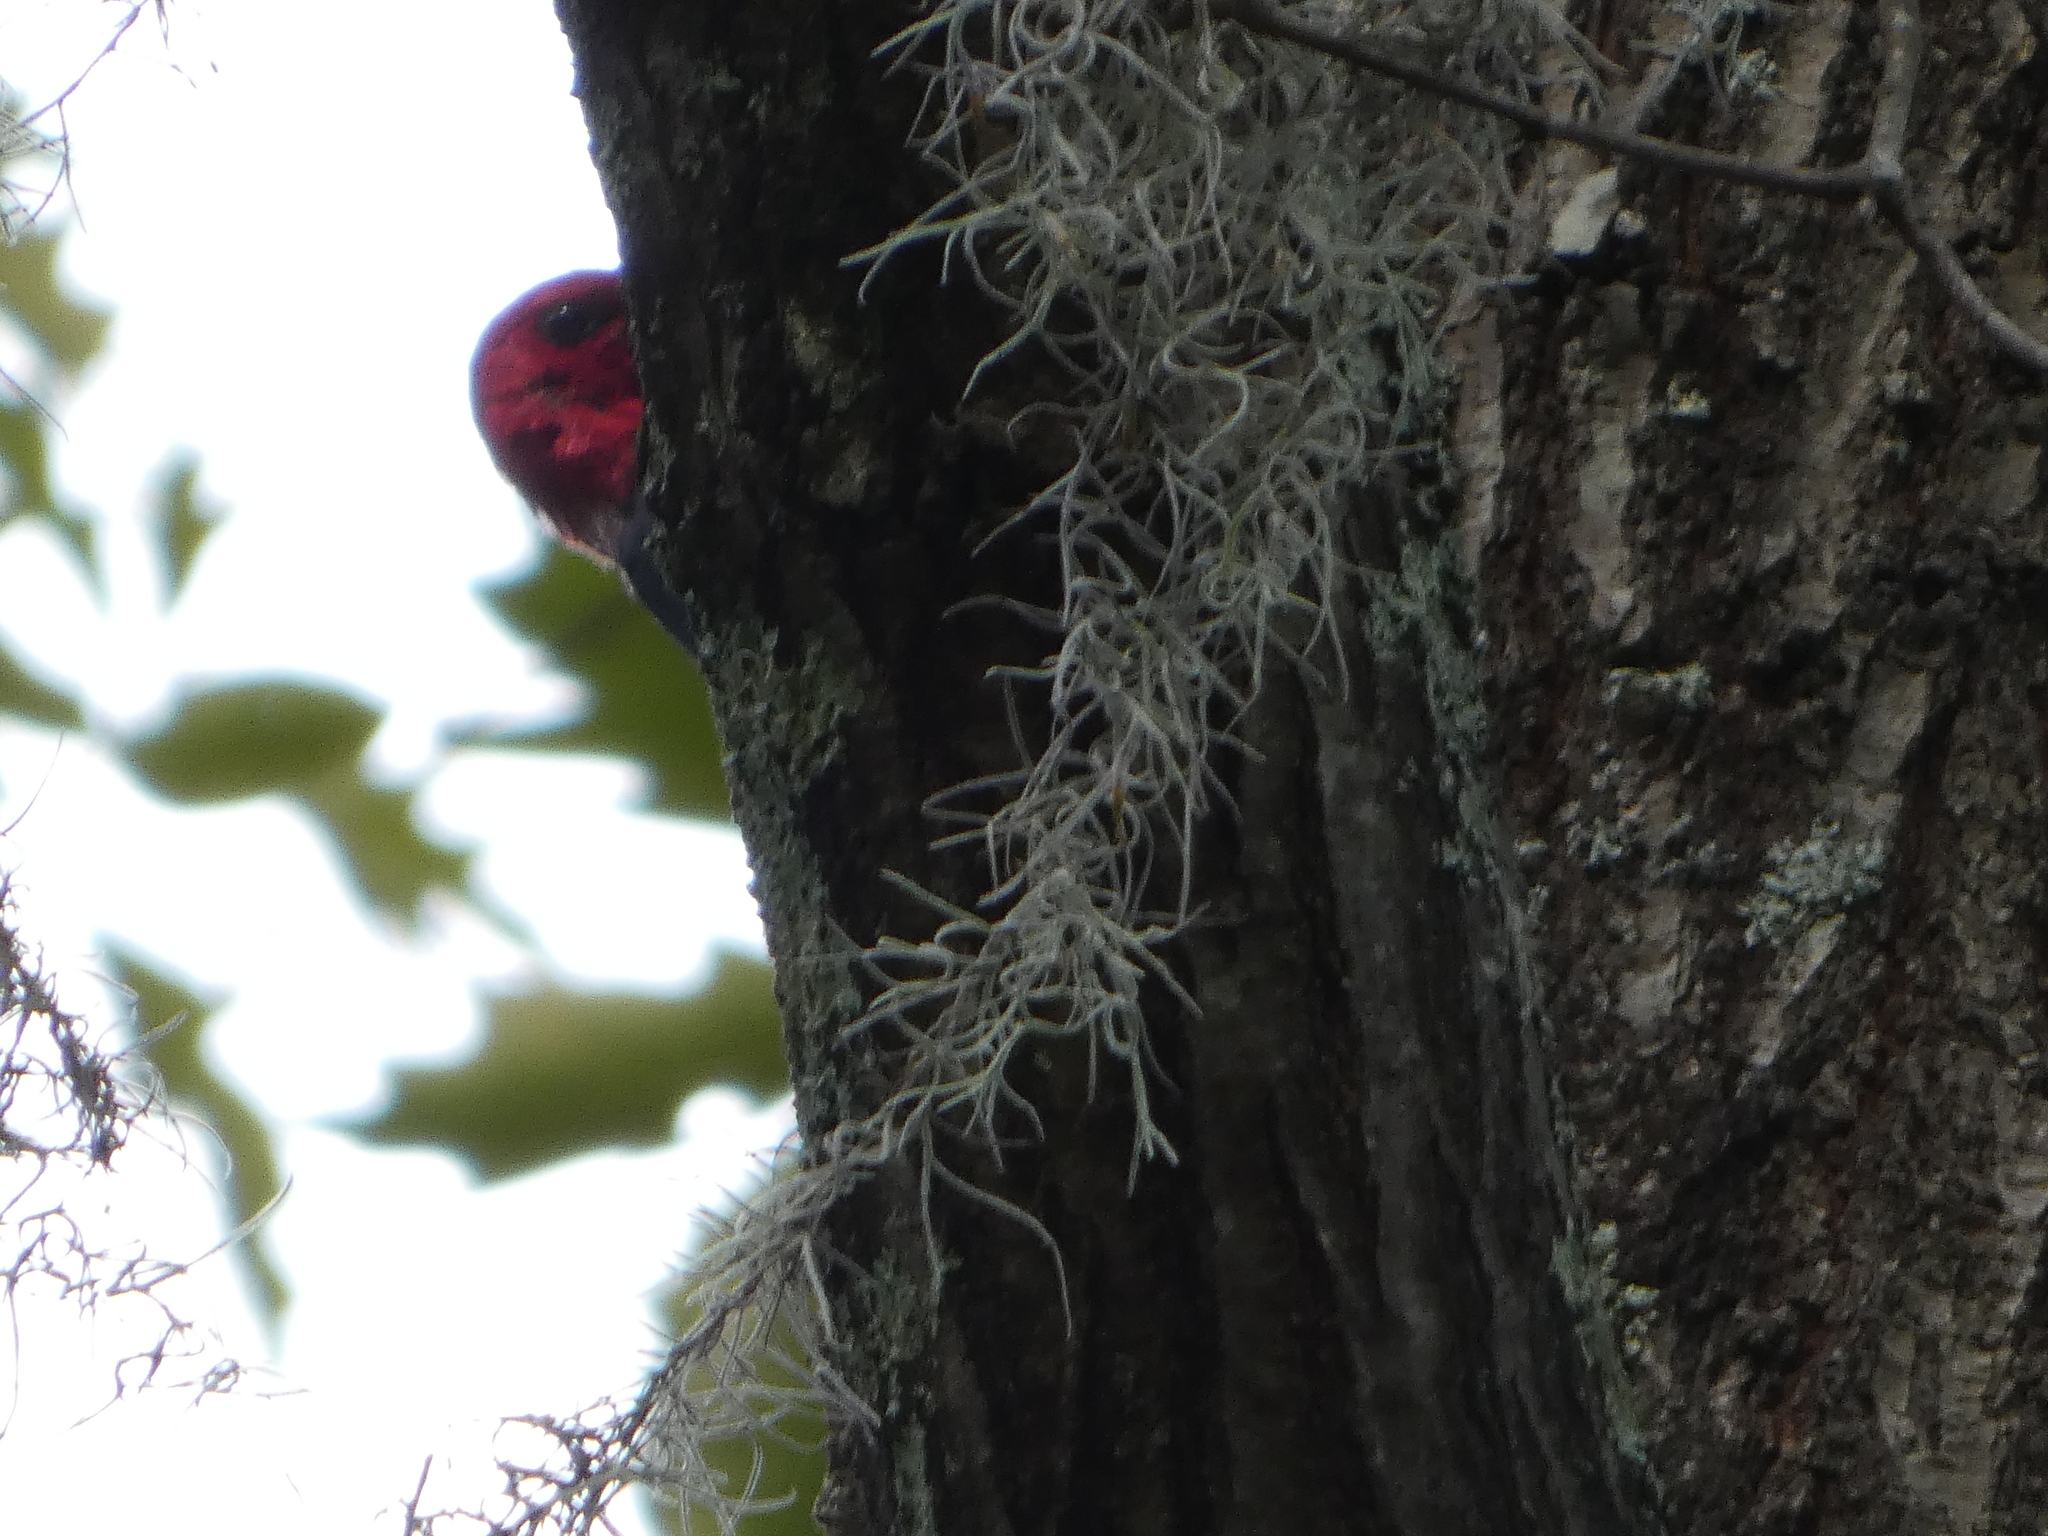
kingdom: Animalia
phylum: Chordata
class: Aves
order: Piciformes
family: Picidae
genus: Melanerpes
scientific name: Melanerpes erythrocephalus
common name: Red-headed woodpecker
